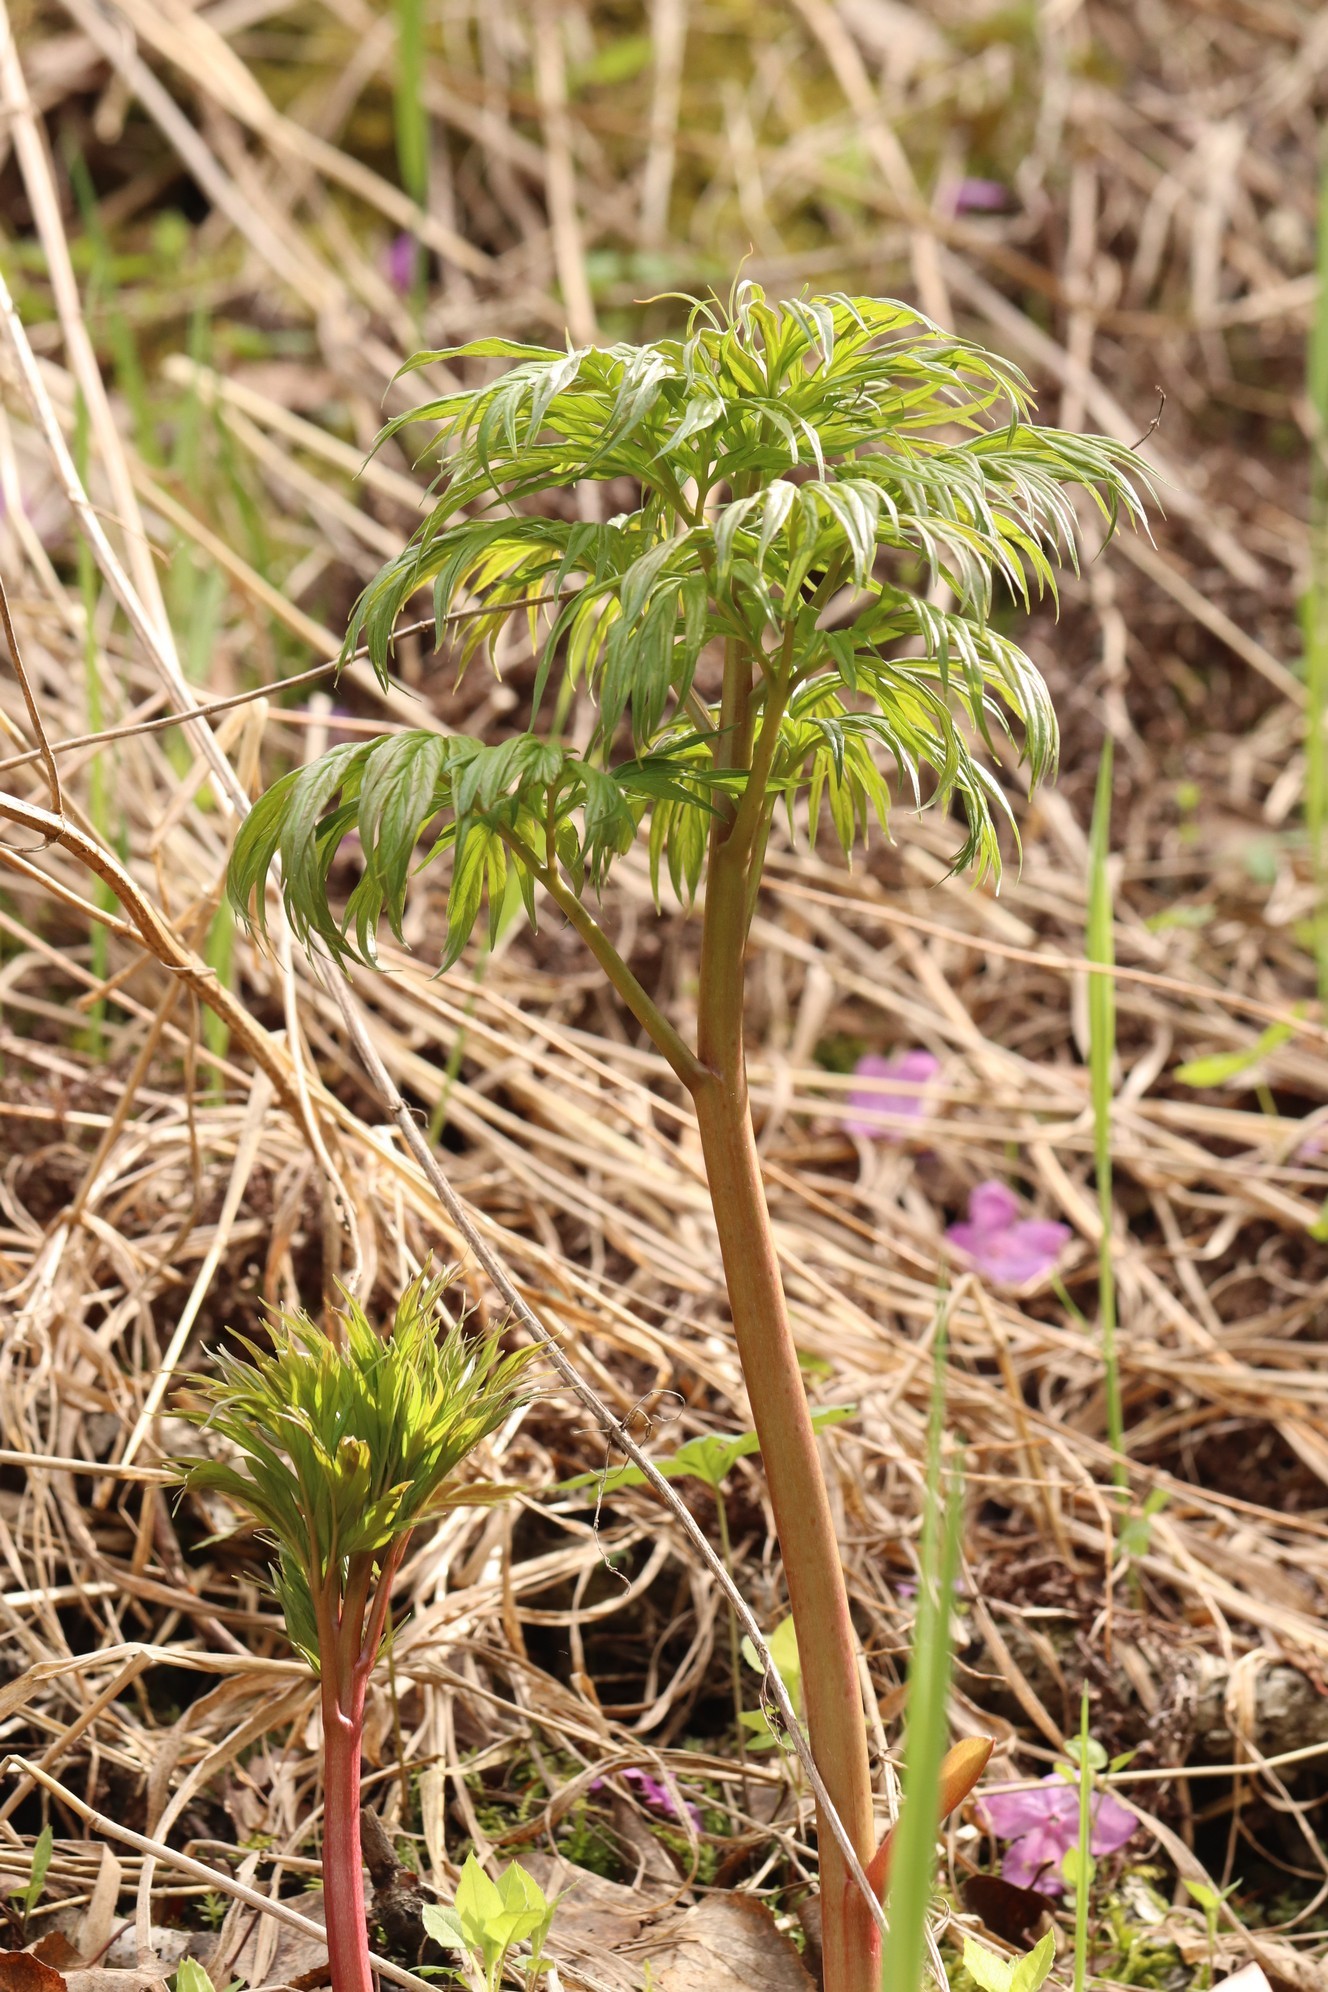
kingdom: Plantae
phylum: Tracheophyta
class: Magnoliopsida
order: Saxifragales
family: Paeoniaceae
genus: Paeonia
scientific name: Paeonia anomala
